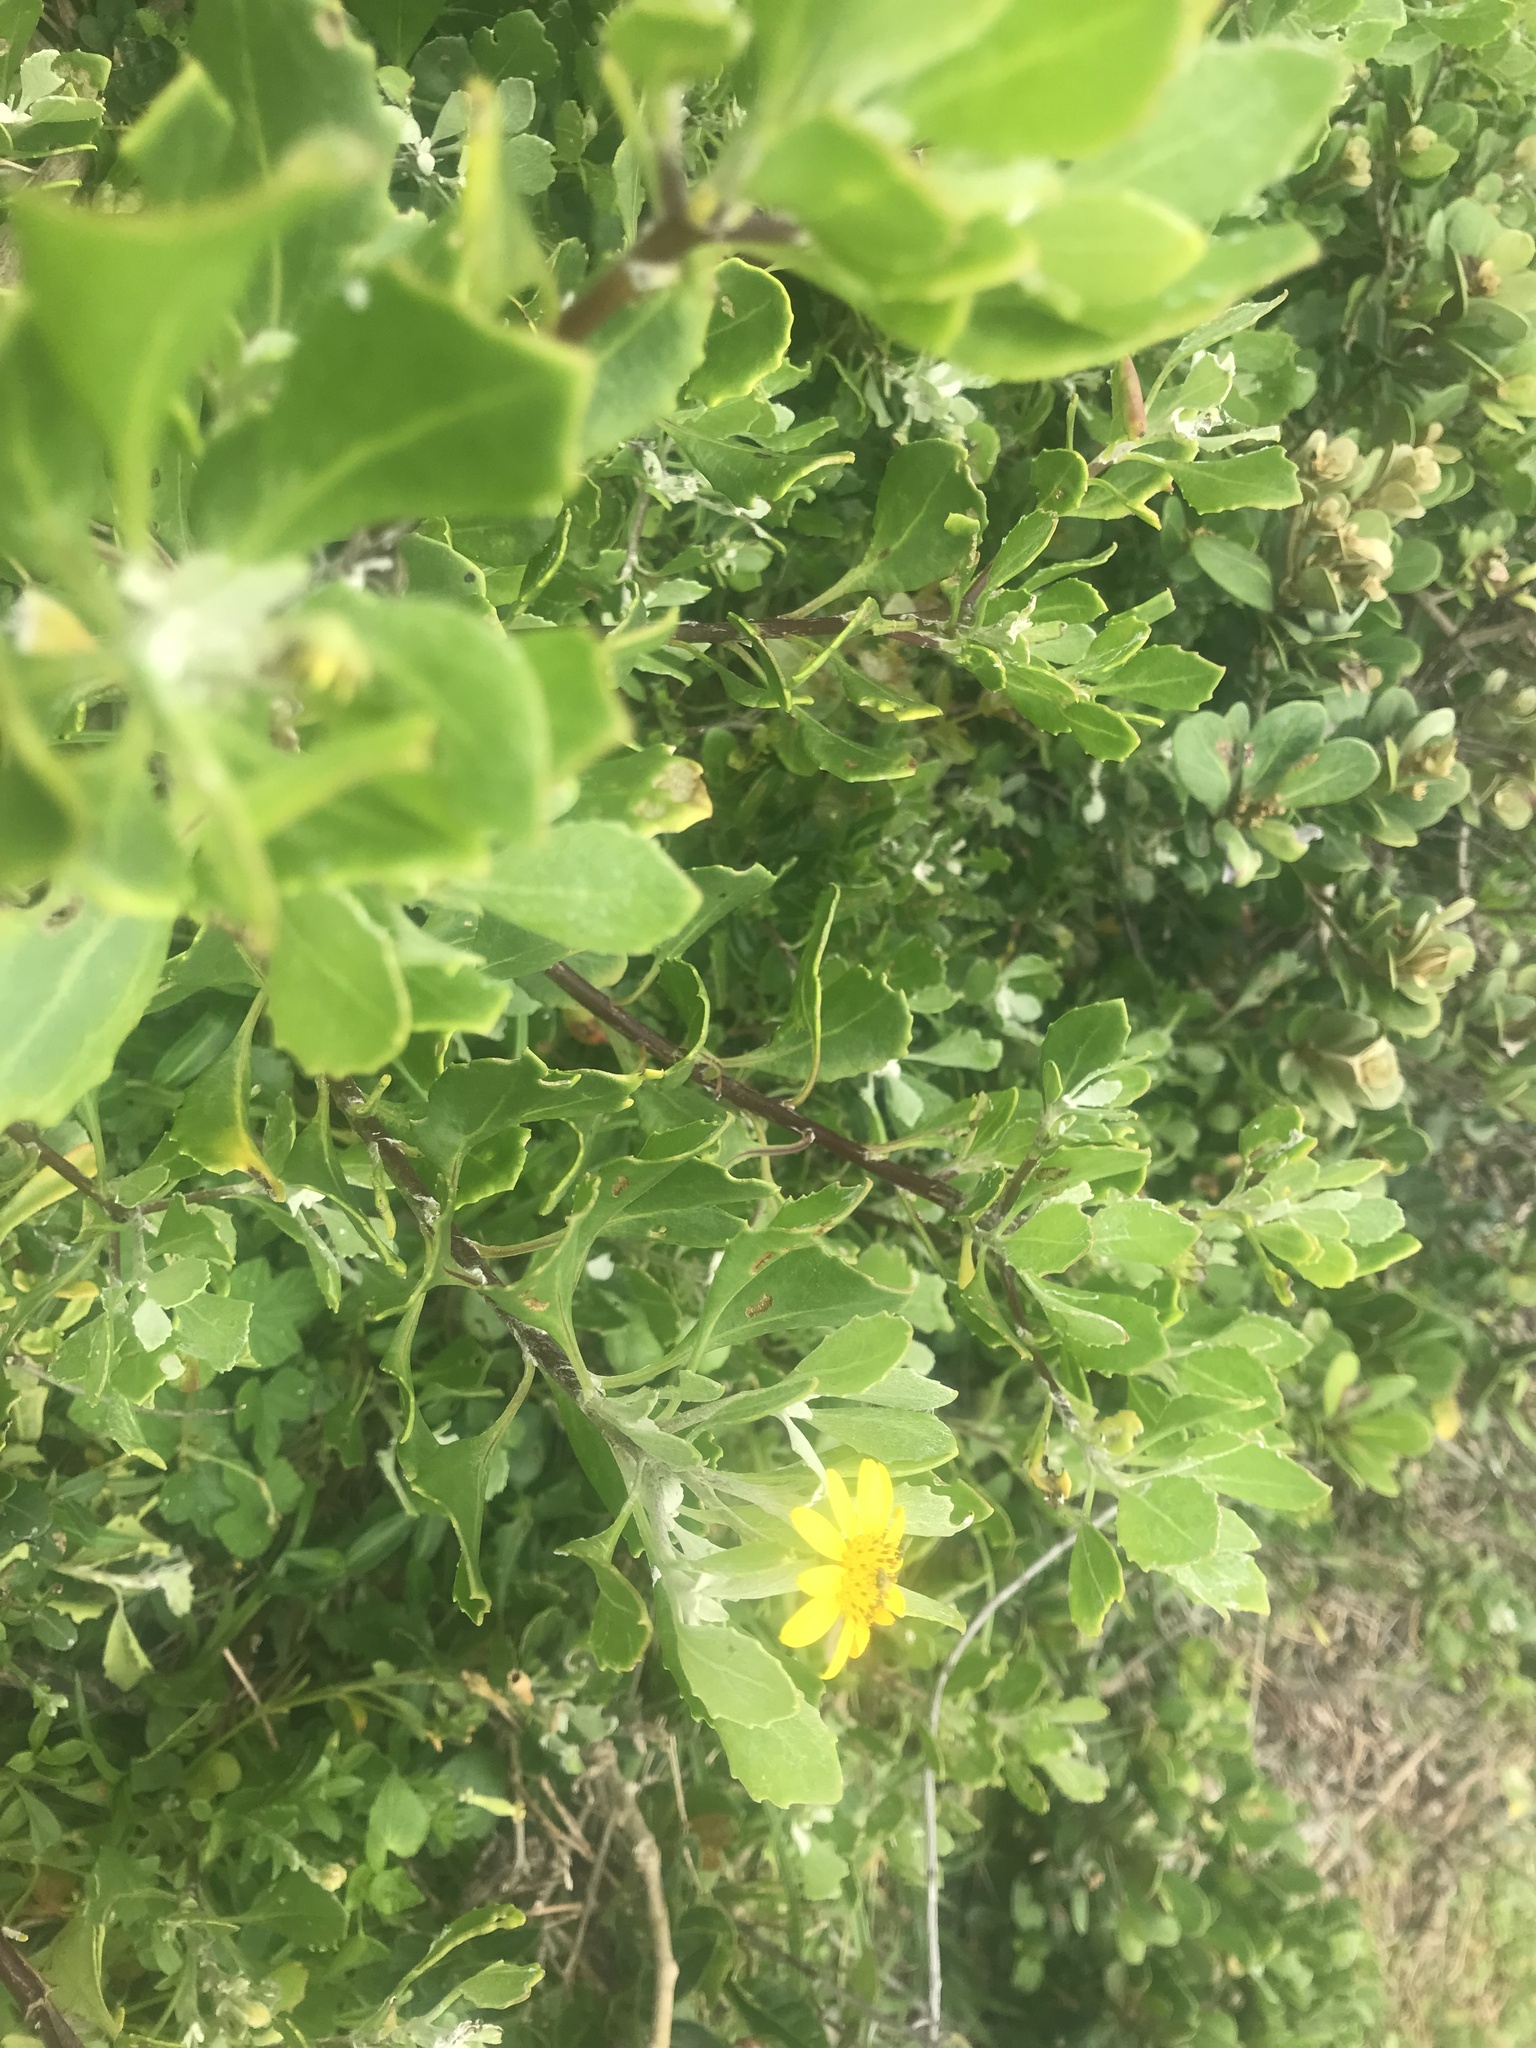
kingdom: Plantae
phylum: Tracheophyta
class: Magnoliopsida
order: Asterales
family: Asteraceae
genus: Osteospermum
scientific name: Osteospermum moniliferum
